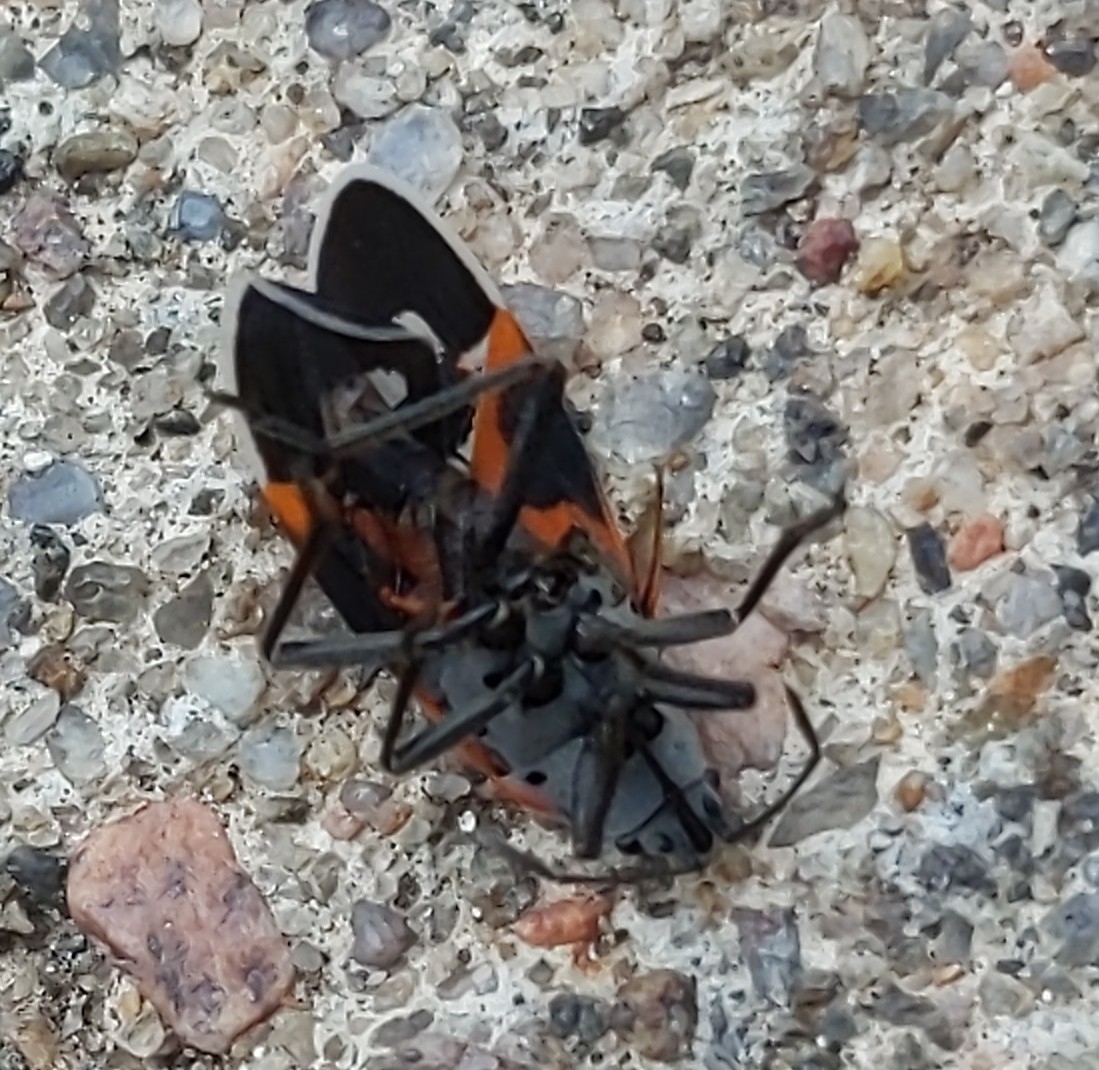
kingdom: Animalia
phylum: Arthropoda
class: Insecta
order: Hemiptera
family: Lygaeidae
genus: Lygaeus
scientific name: Lygaeus kalmii
